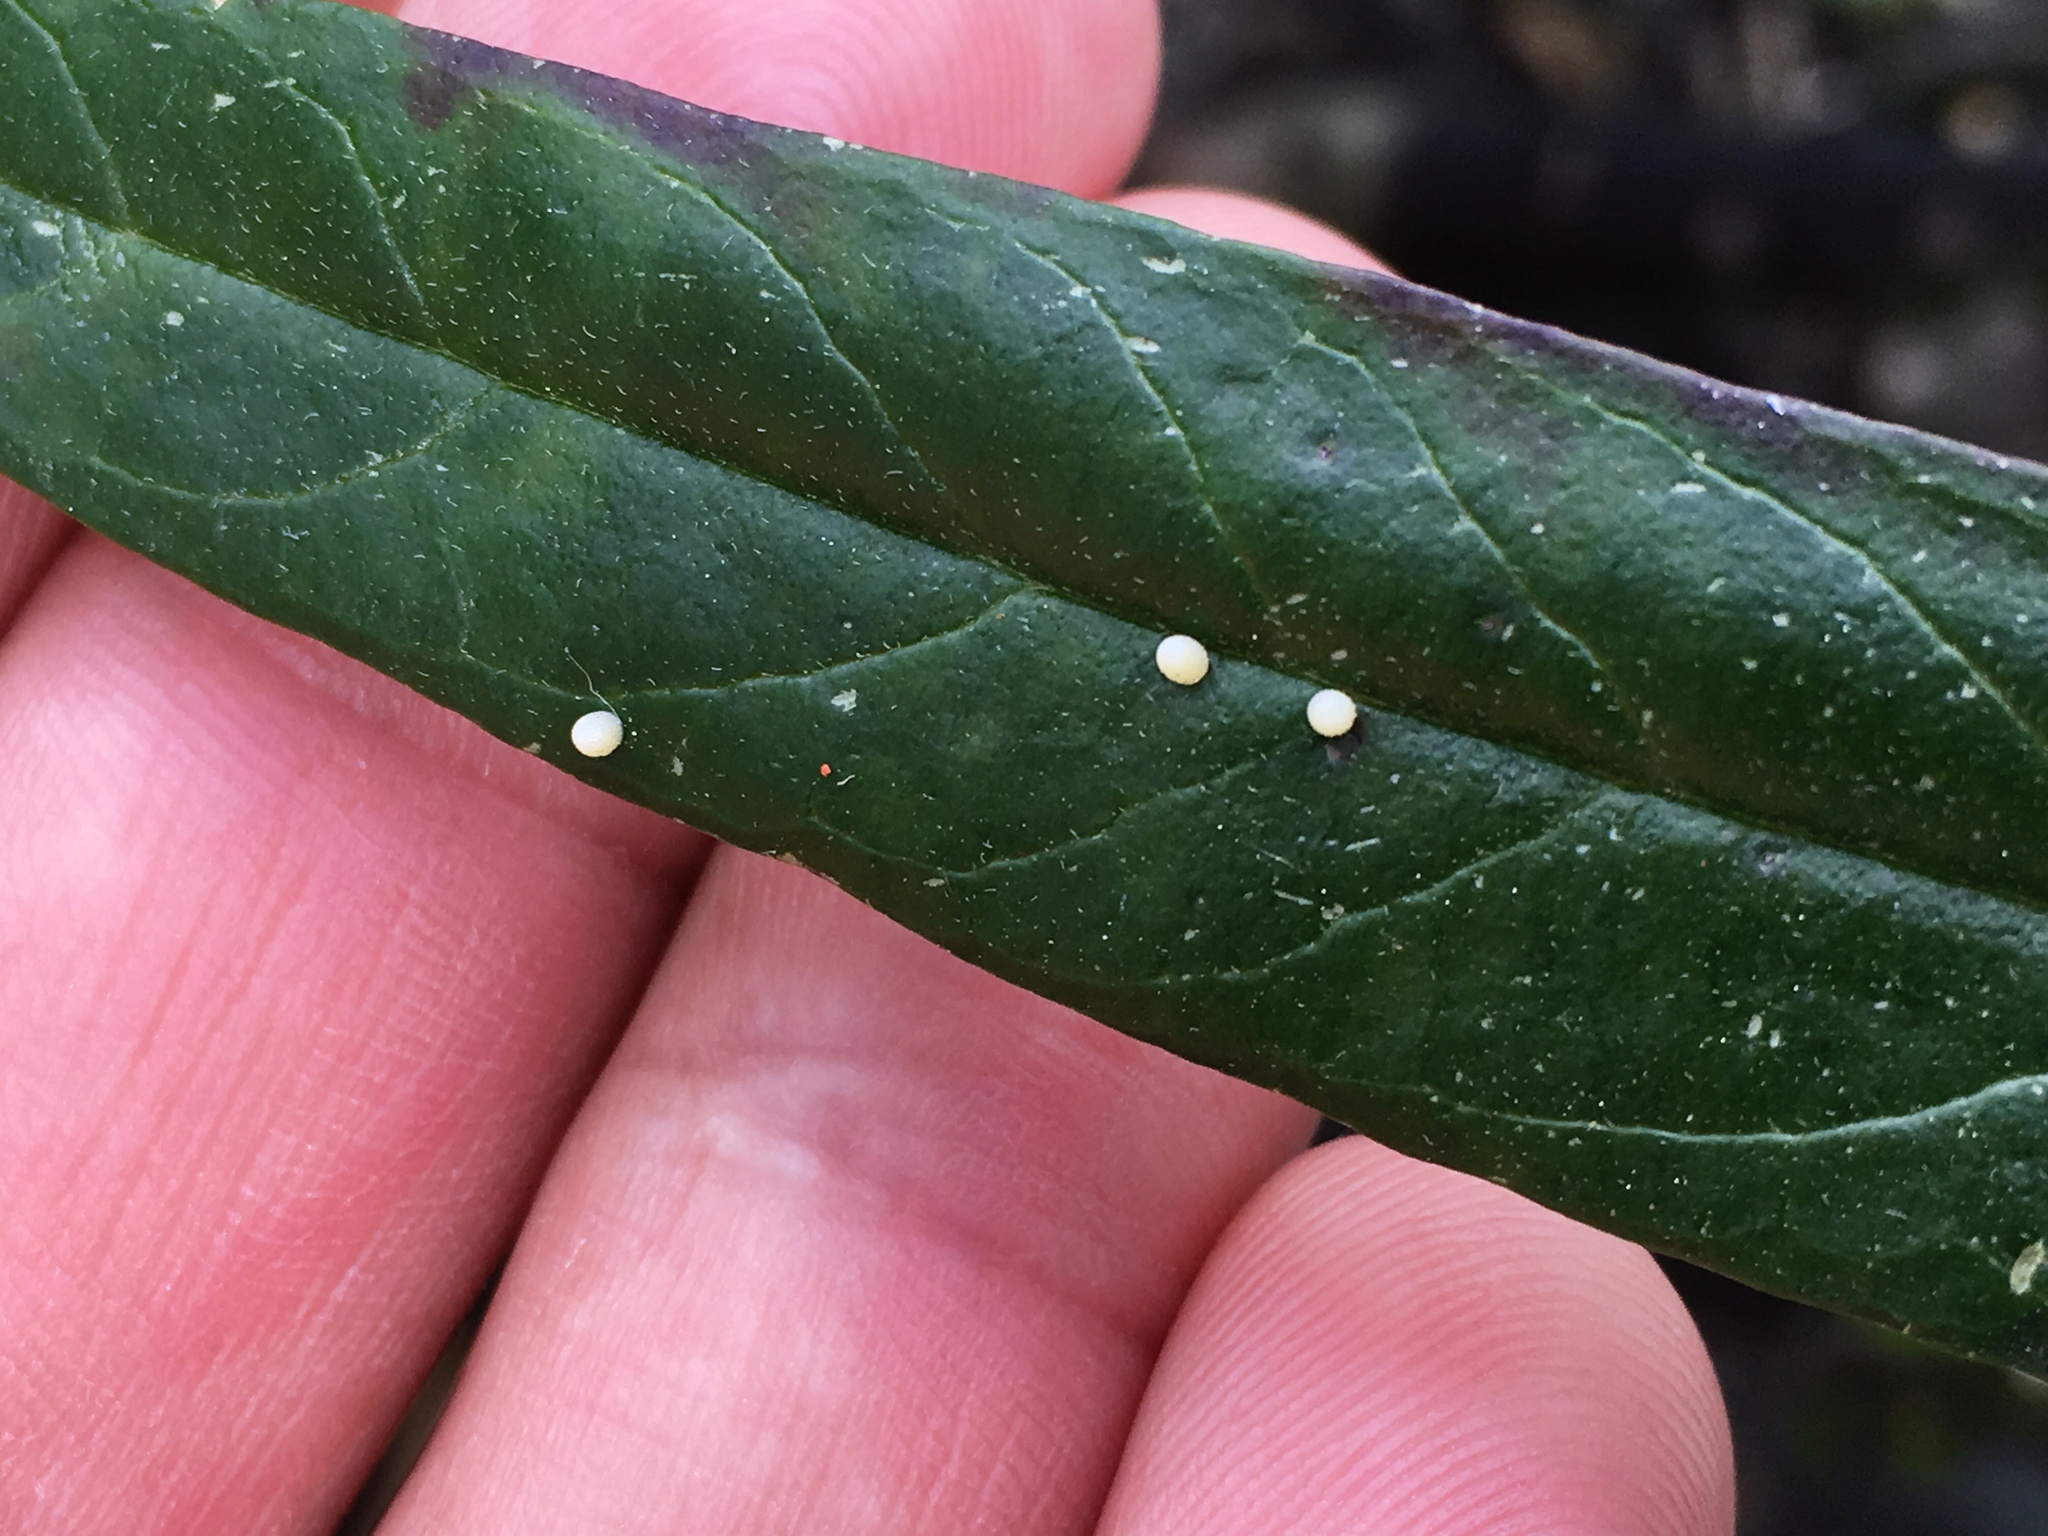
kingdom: Animalia
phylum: Arthropoda
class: Insecta
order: Lepidoptera
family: Nymphalidae
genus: Danaus
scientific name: Danaus plexippus
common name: Monarch
